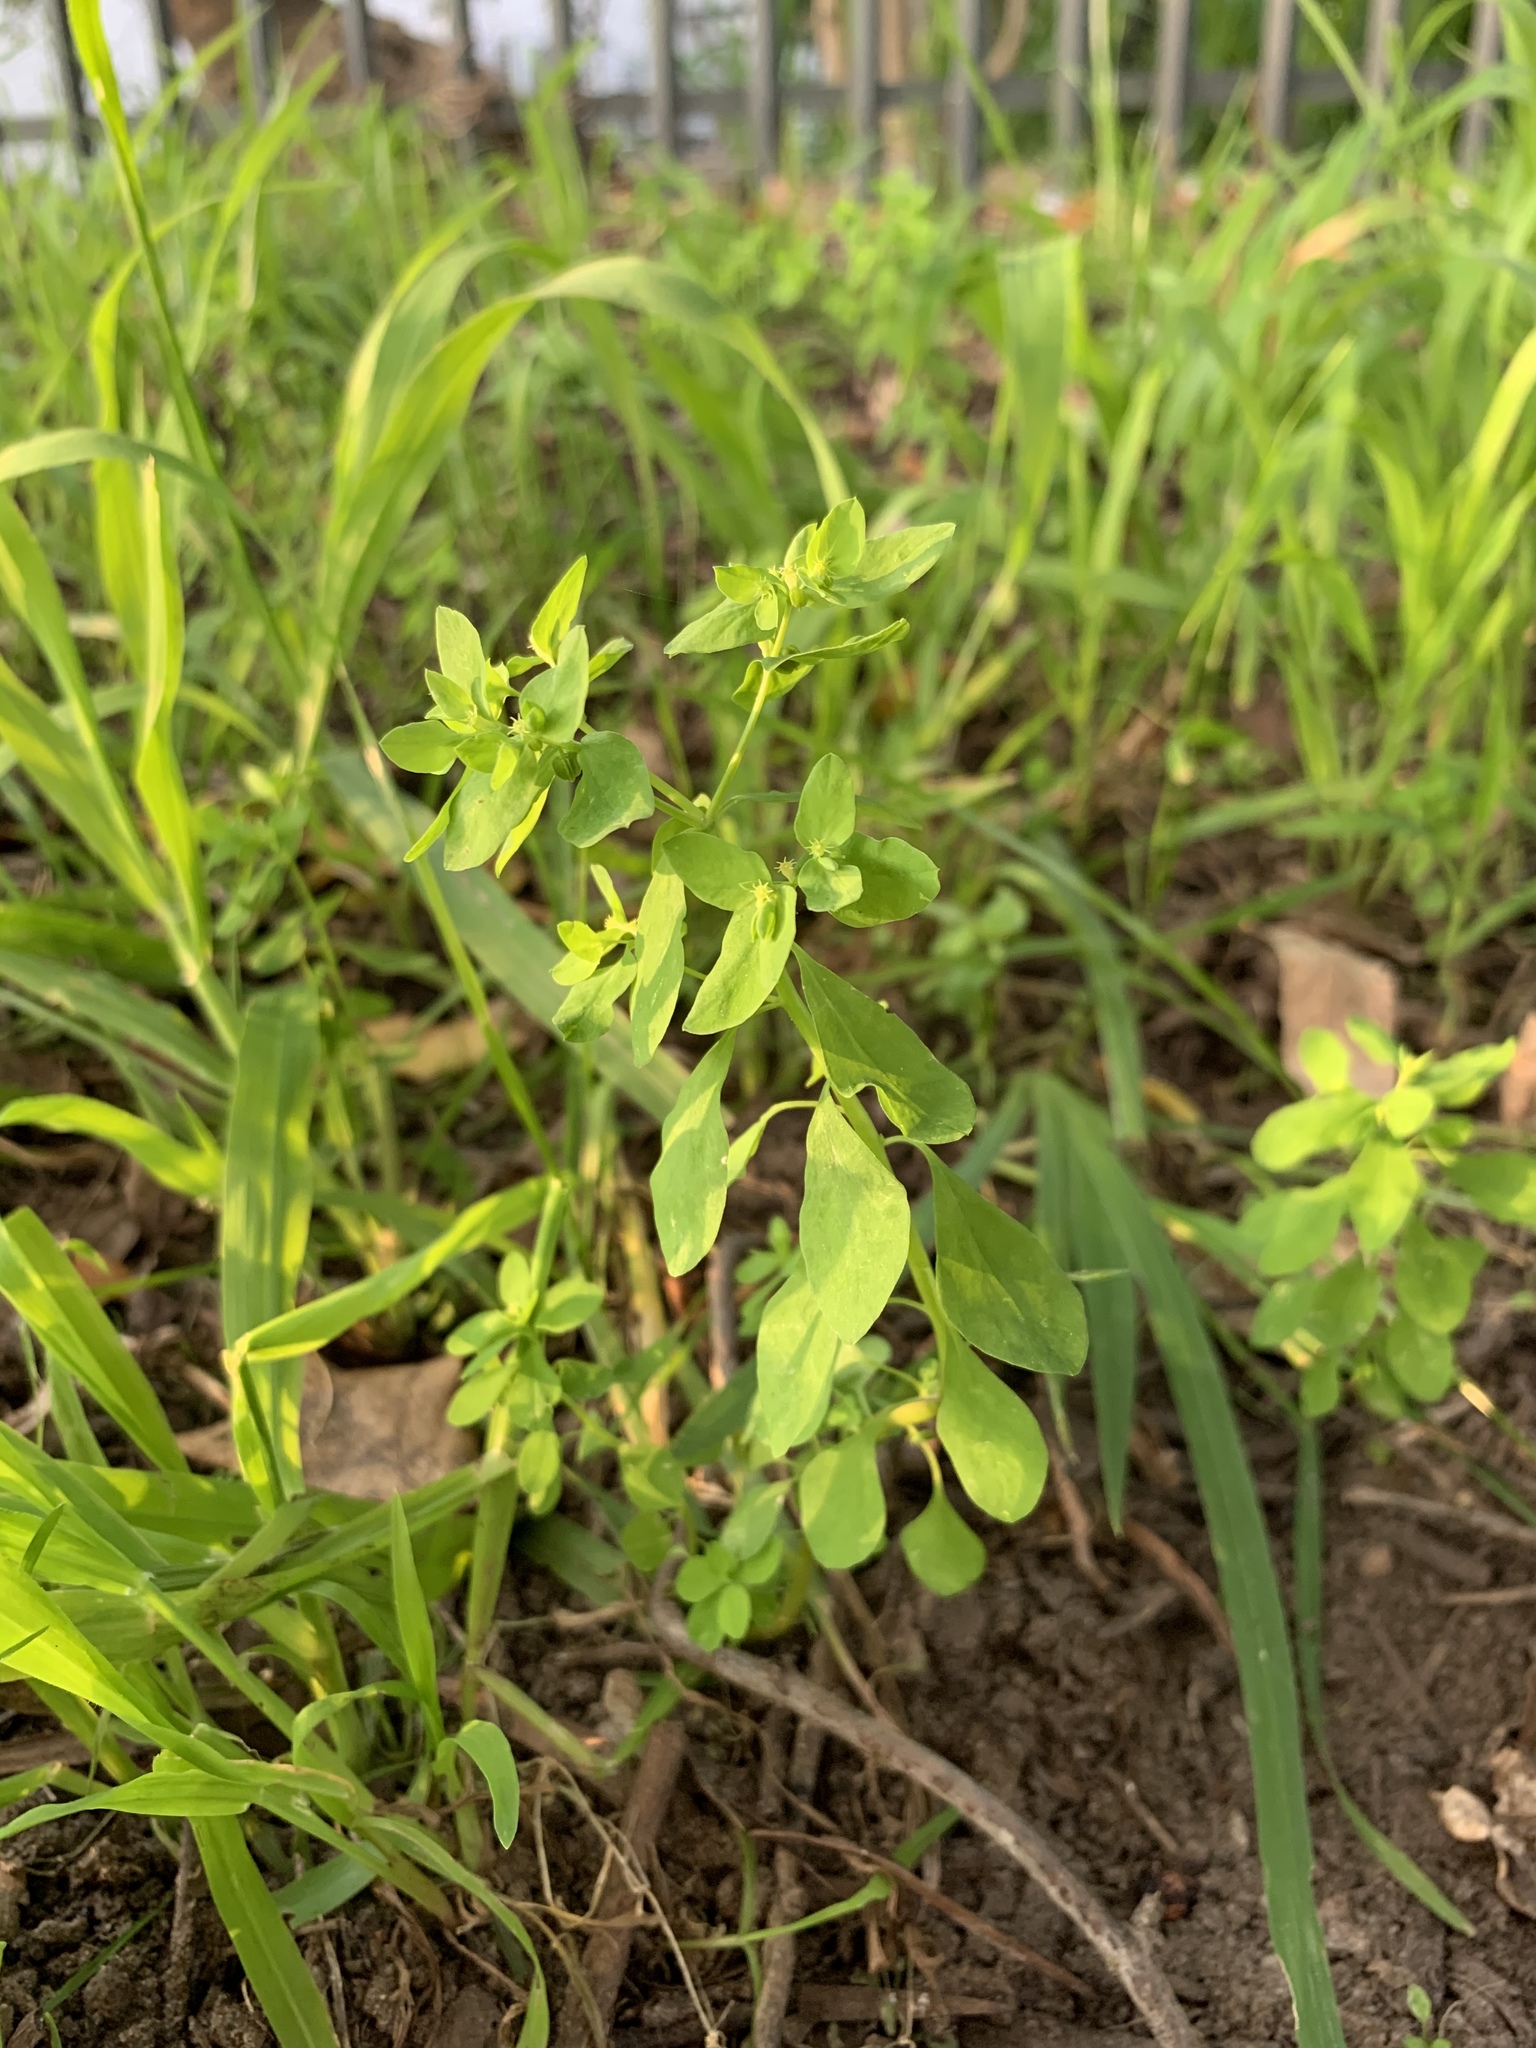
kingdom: Plantae
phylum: Tracheophyta
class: Magnoliopsida
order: Malpighiales
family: Euphorbiaceae
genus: Euphorbia
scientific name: Euphorbia peplus
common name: Petty spurge
